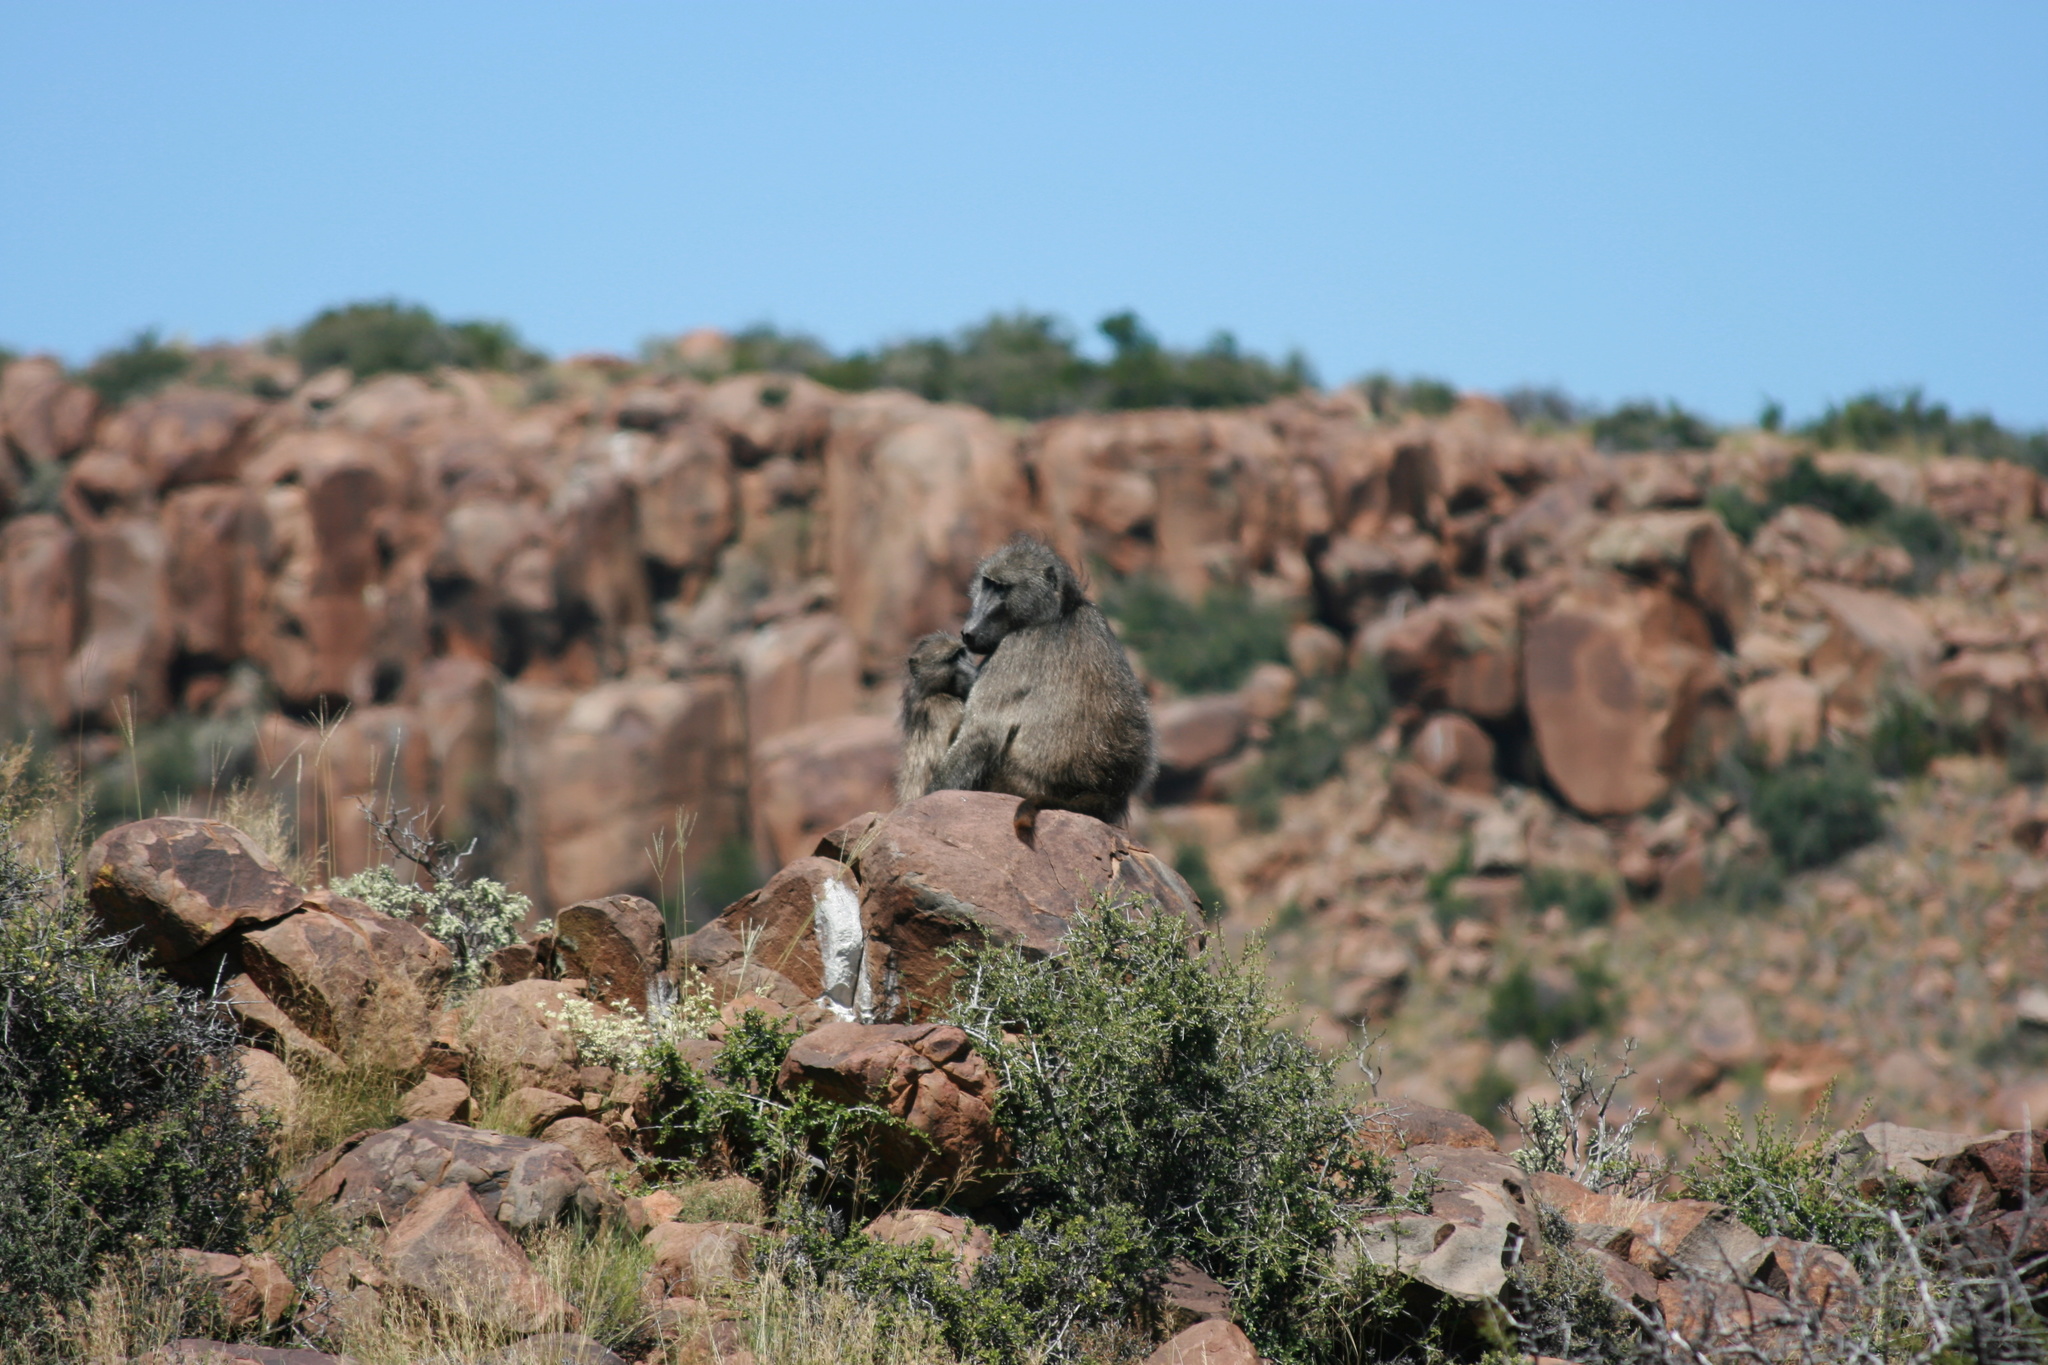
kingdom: Animalia
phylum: Chordata
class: Mammalia
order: Primates
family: Cercopithecidae
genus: Papio
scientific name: Papio ursinus
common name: Chacma baboon
